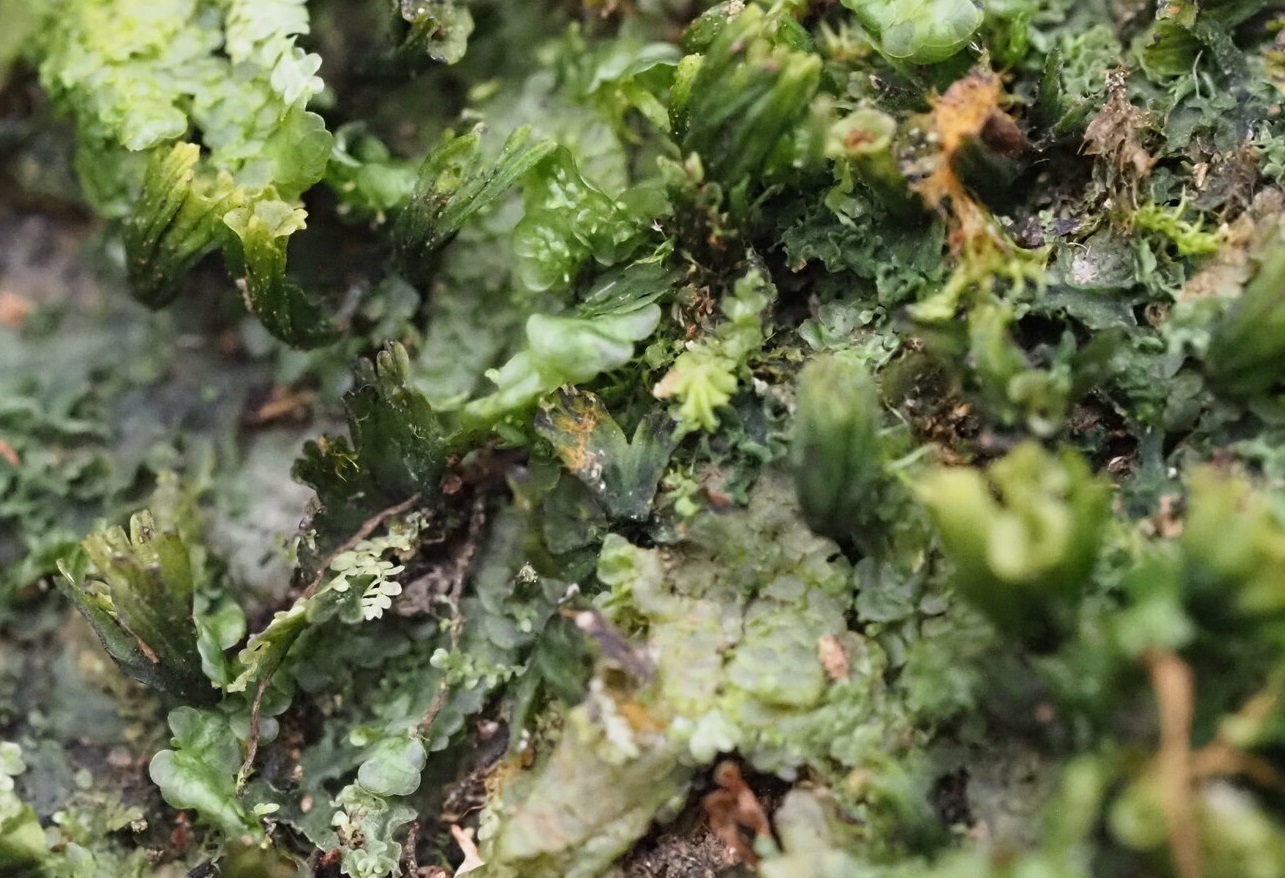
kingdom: Plantae
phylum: Marchantiophyta
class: Jungermanniopsida
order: Porellales
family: Radulaceae
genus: Radula
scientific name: Radula acutangula
